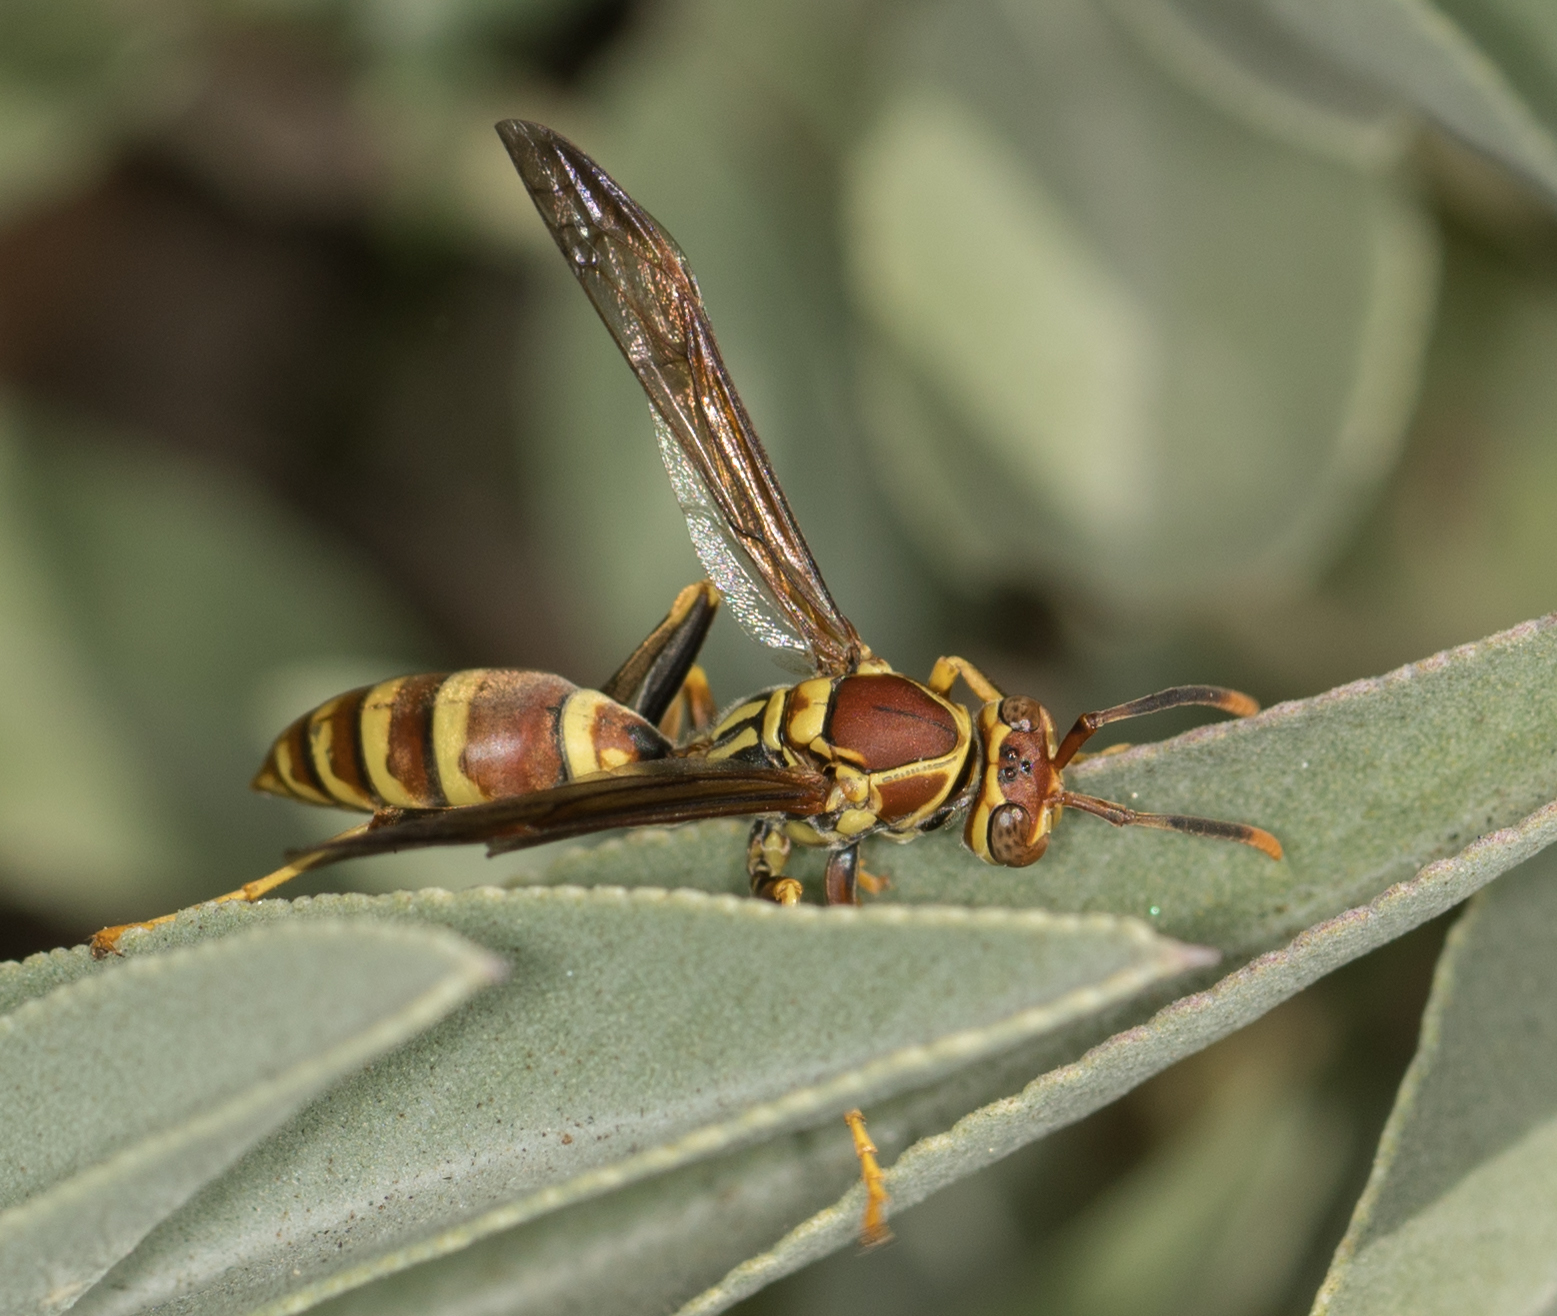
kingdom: Animalia
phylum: Arthropoda
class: Insecta
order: Hymenoptera
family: Eumenidae
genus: Polistes
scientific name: Polistes exclamans
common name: Paper wasp
